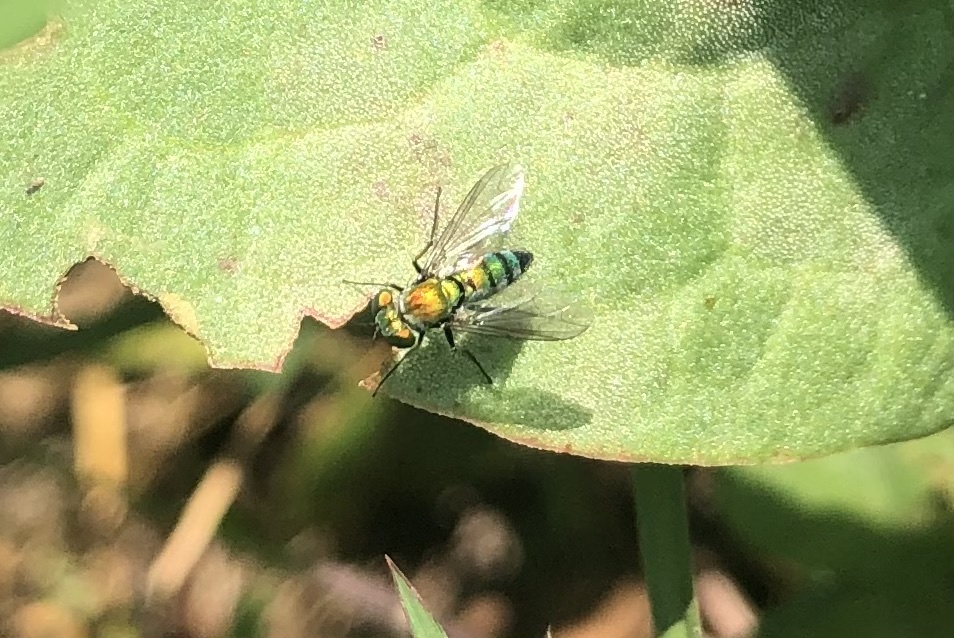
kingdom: Animalia
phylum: Arthropoda
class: Insecta
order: Diptera
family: Dolichopodidae
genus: Condylostylus
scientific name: Condylostylus longicornis
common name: Long-legged fly
